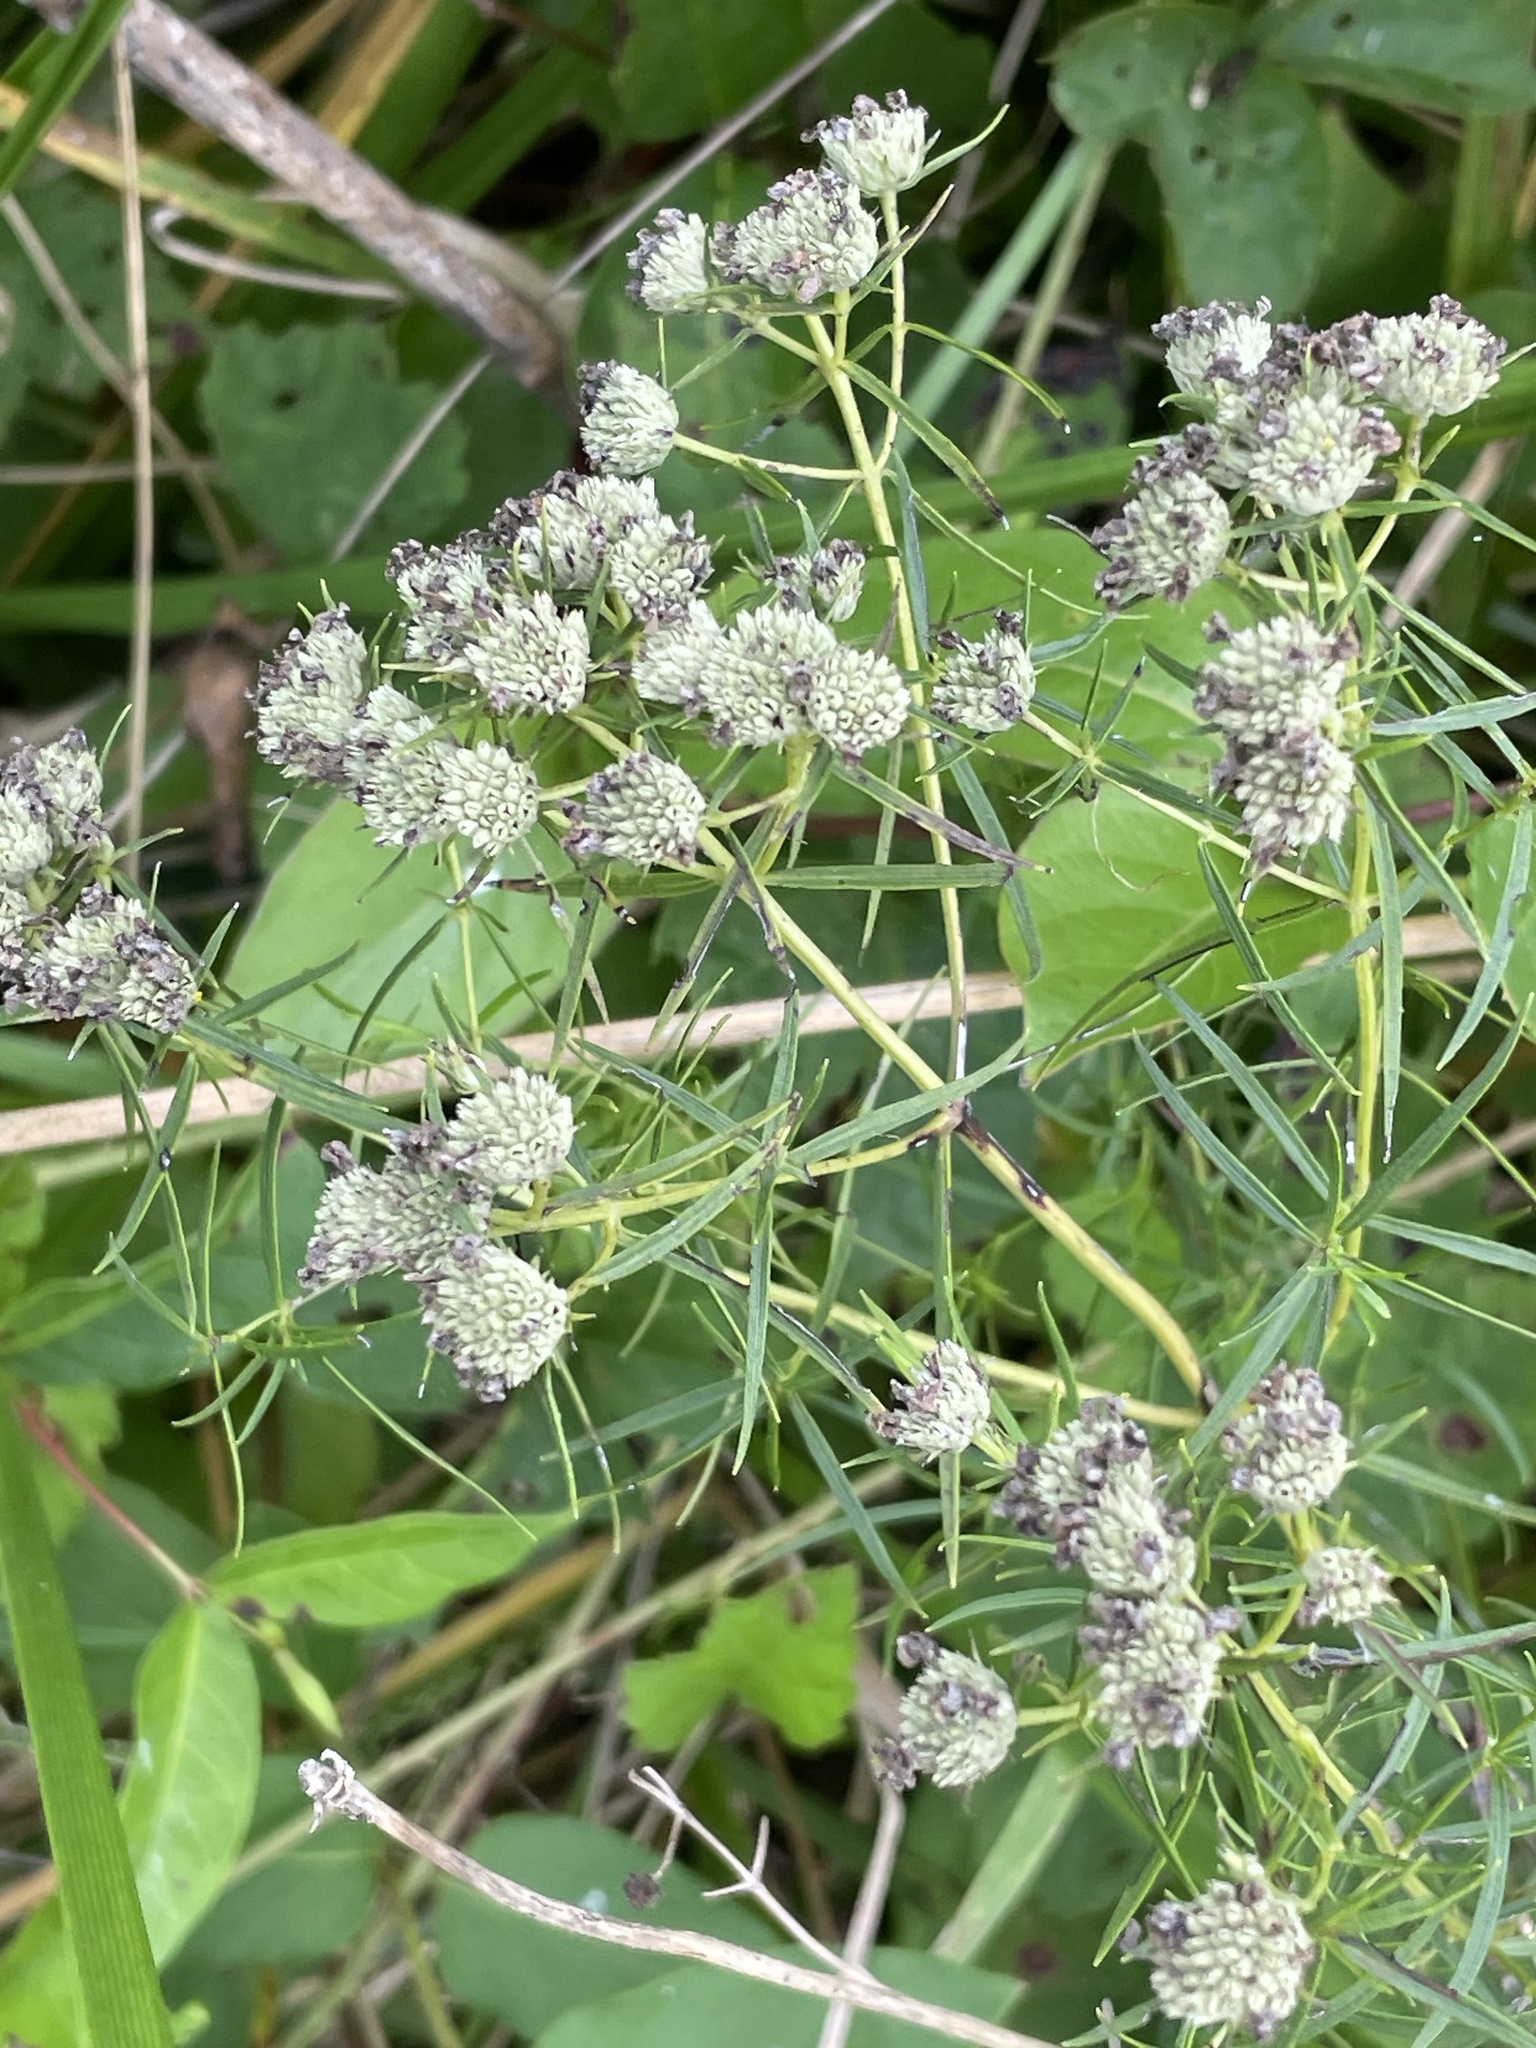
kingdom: Plantae
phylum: Tracheophyta
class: Magnoliopsida
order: Lamiales
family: Lamiaceae
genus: Pycnanthemum
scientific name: Pycnanthemum tenuifolium
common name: Narrow-leaf mountain-mint
